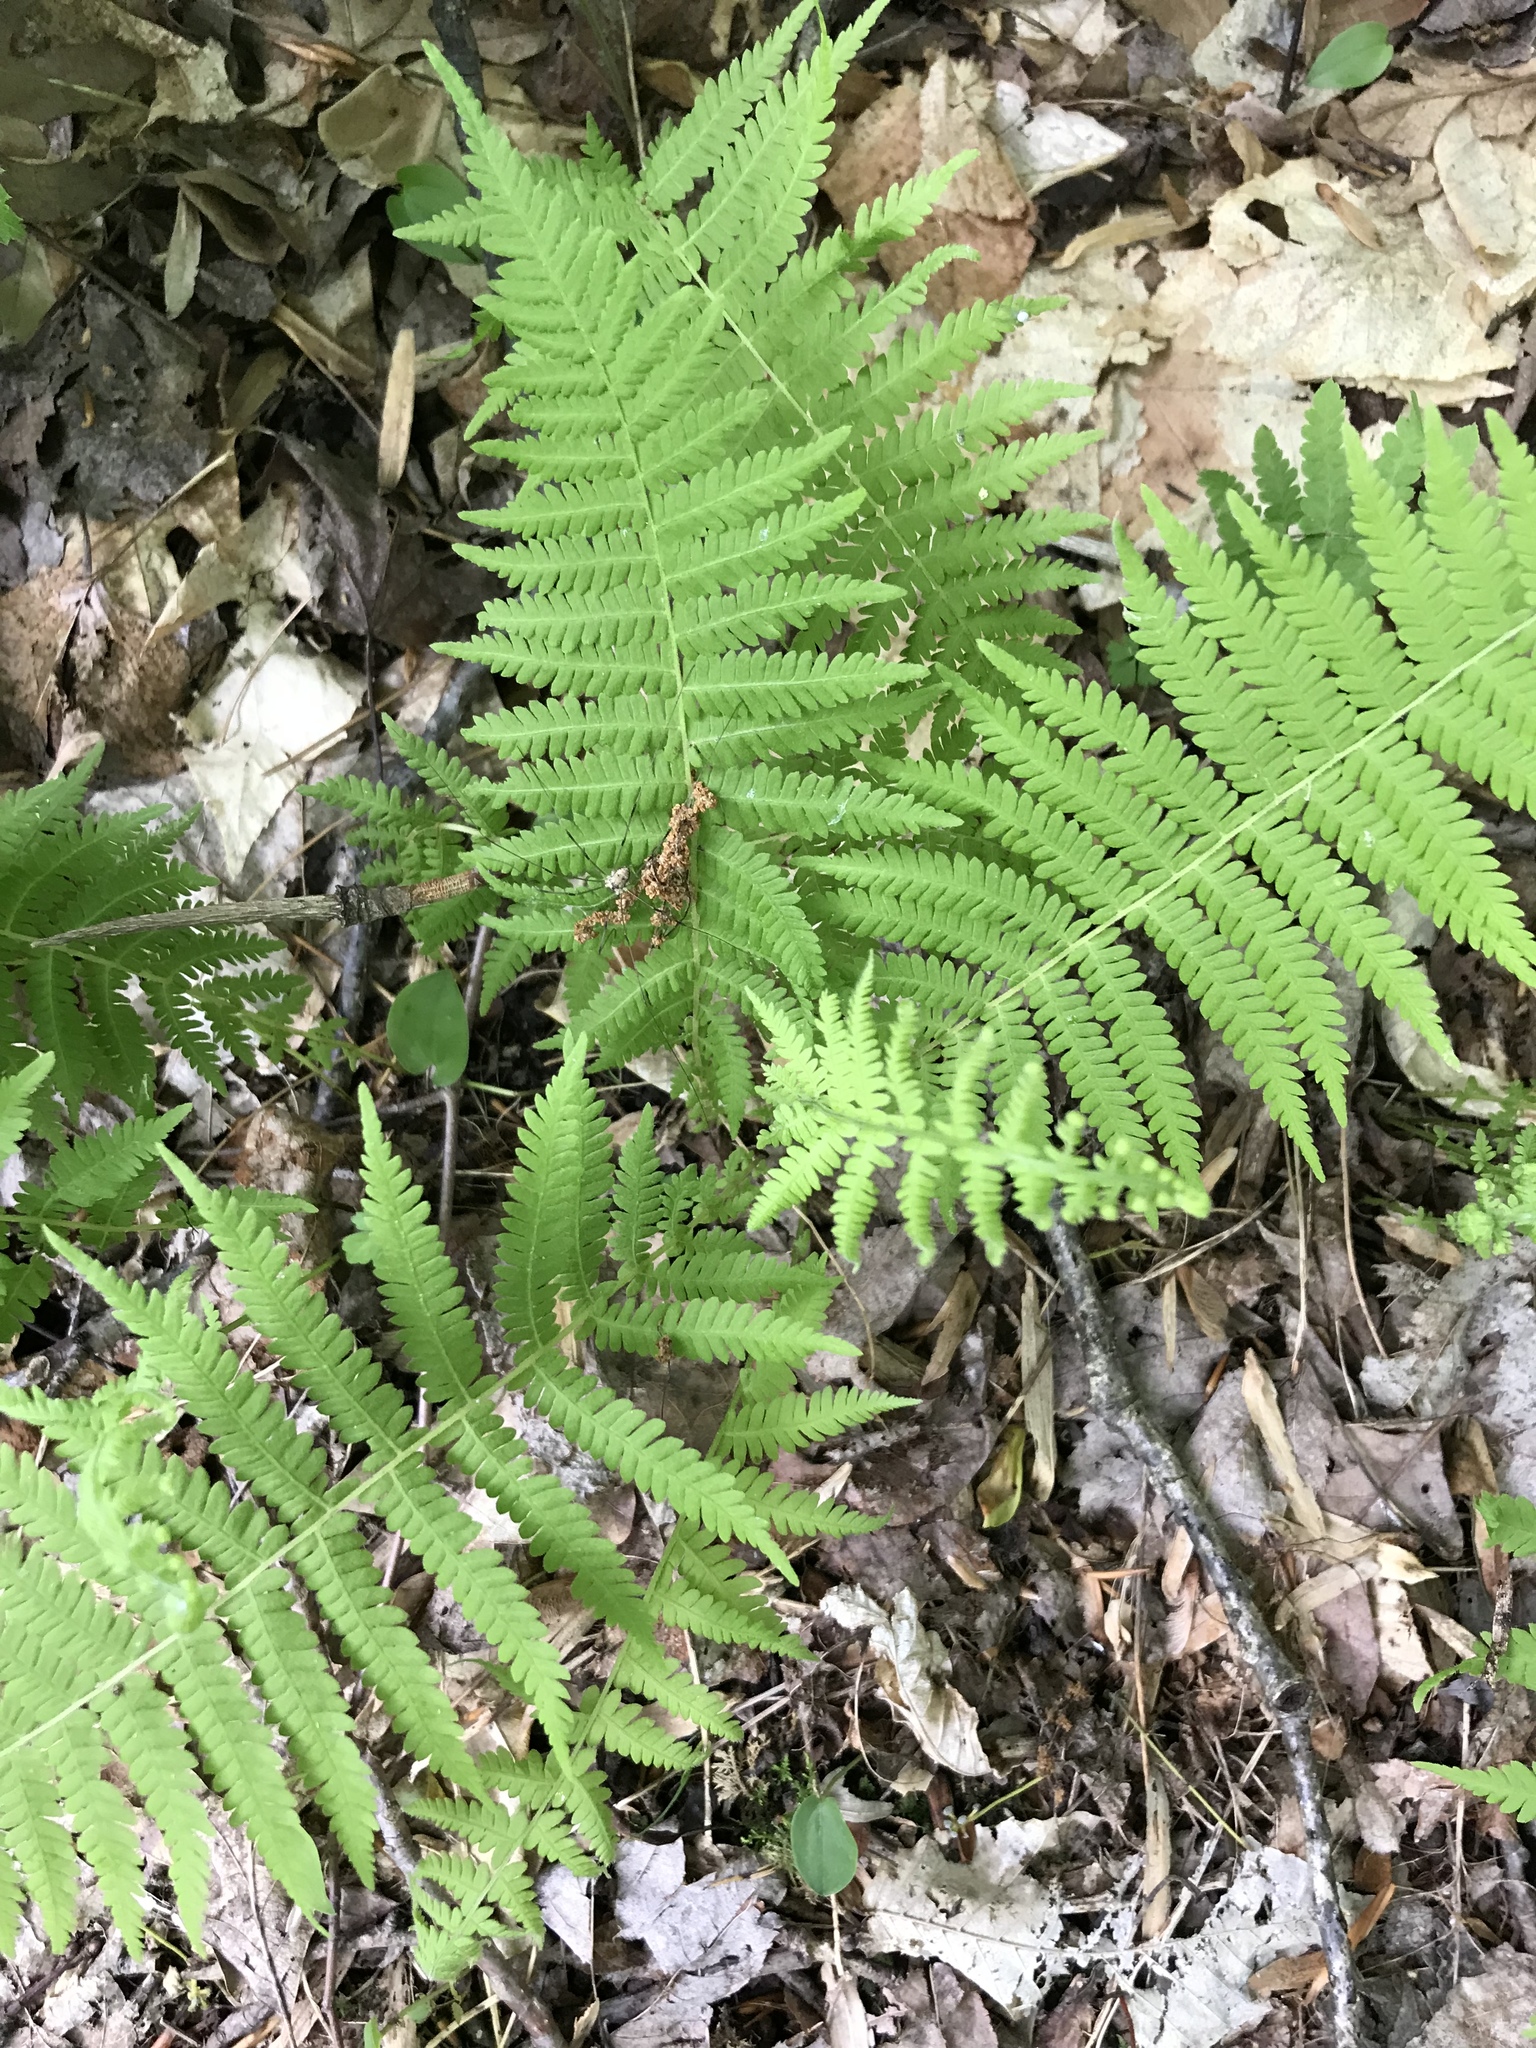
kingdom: Plantae
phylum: Tracheophyta
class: Polypodiopsida
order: Polypodiales
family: Thelypteridaceae
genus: Amauropelta
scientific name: Amauropelta noveboracensis
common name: New york fern
